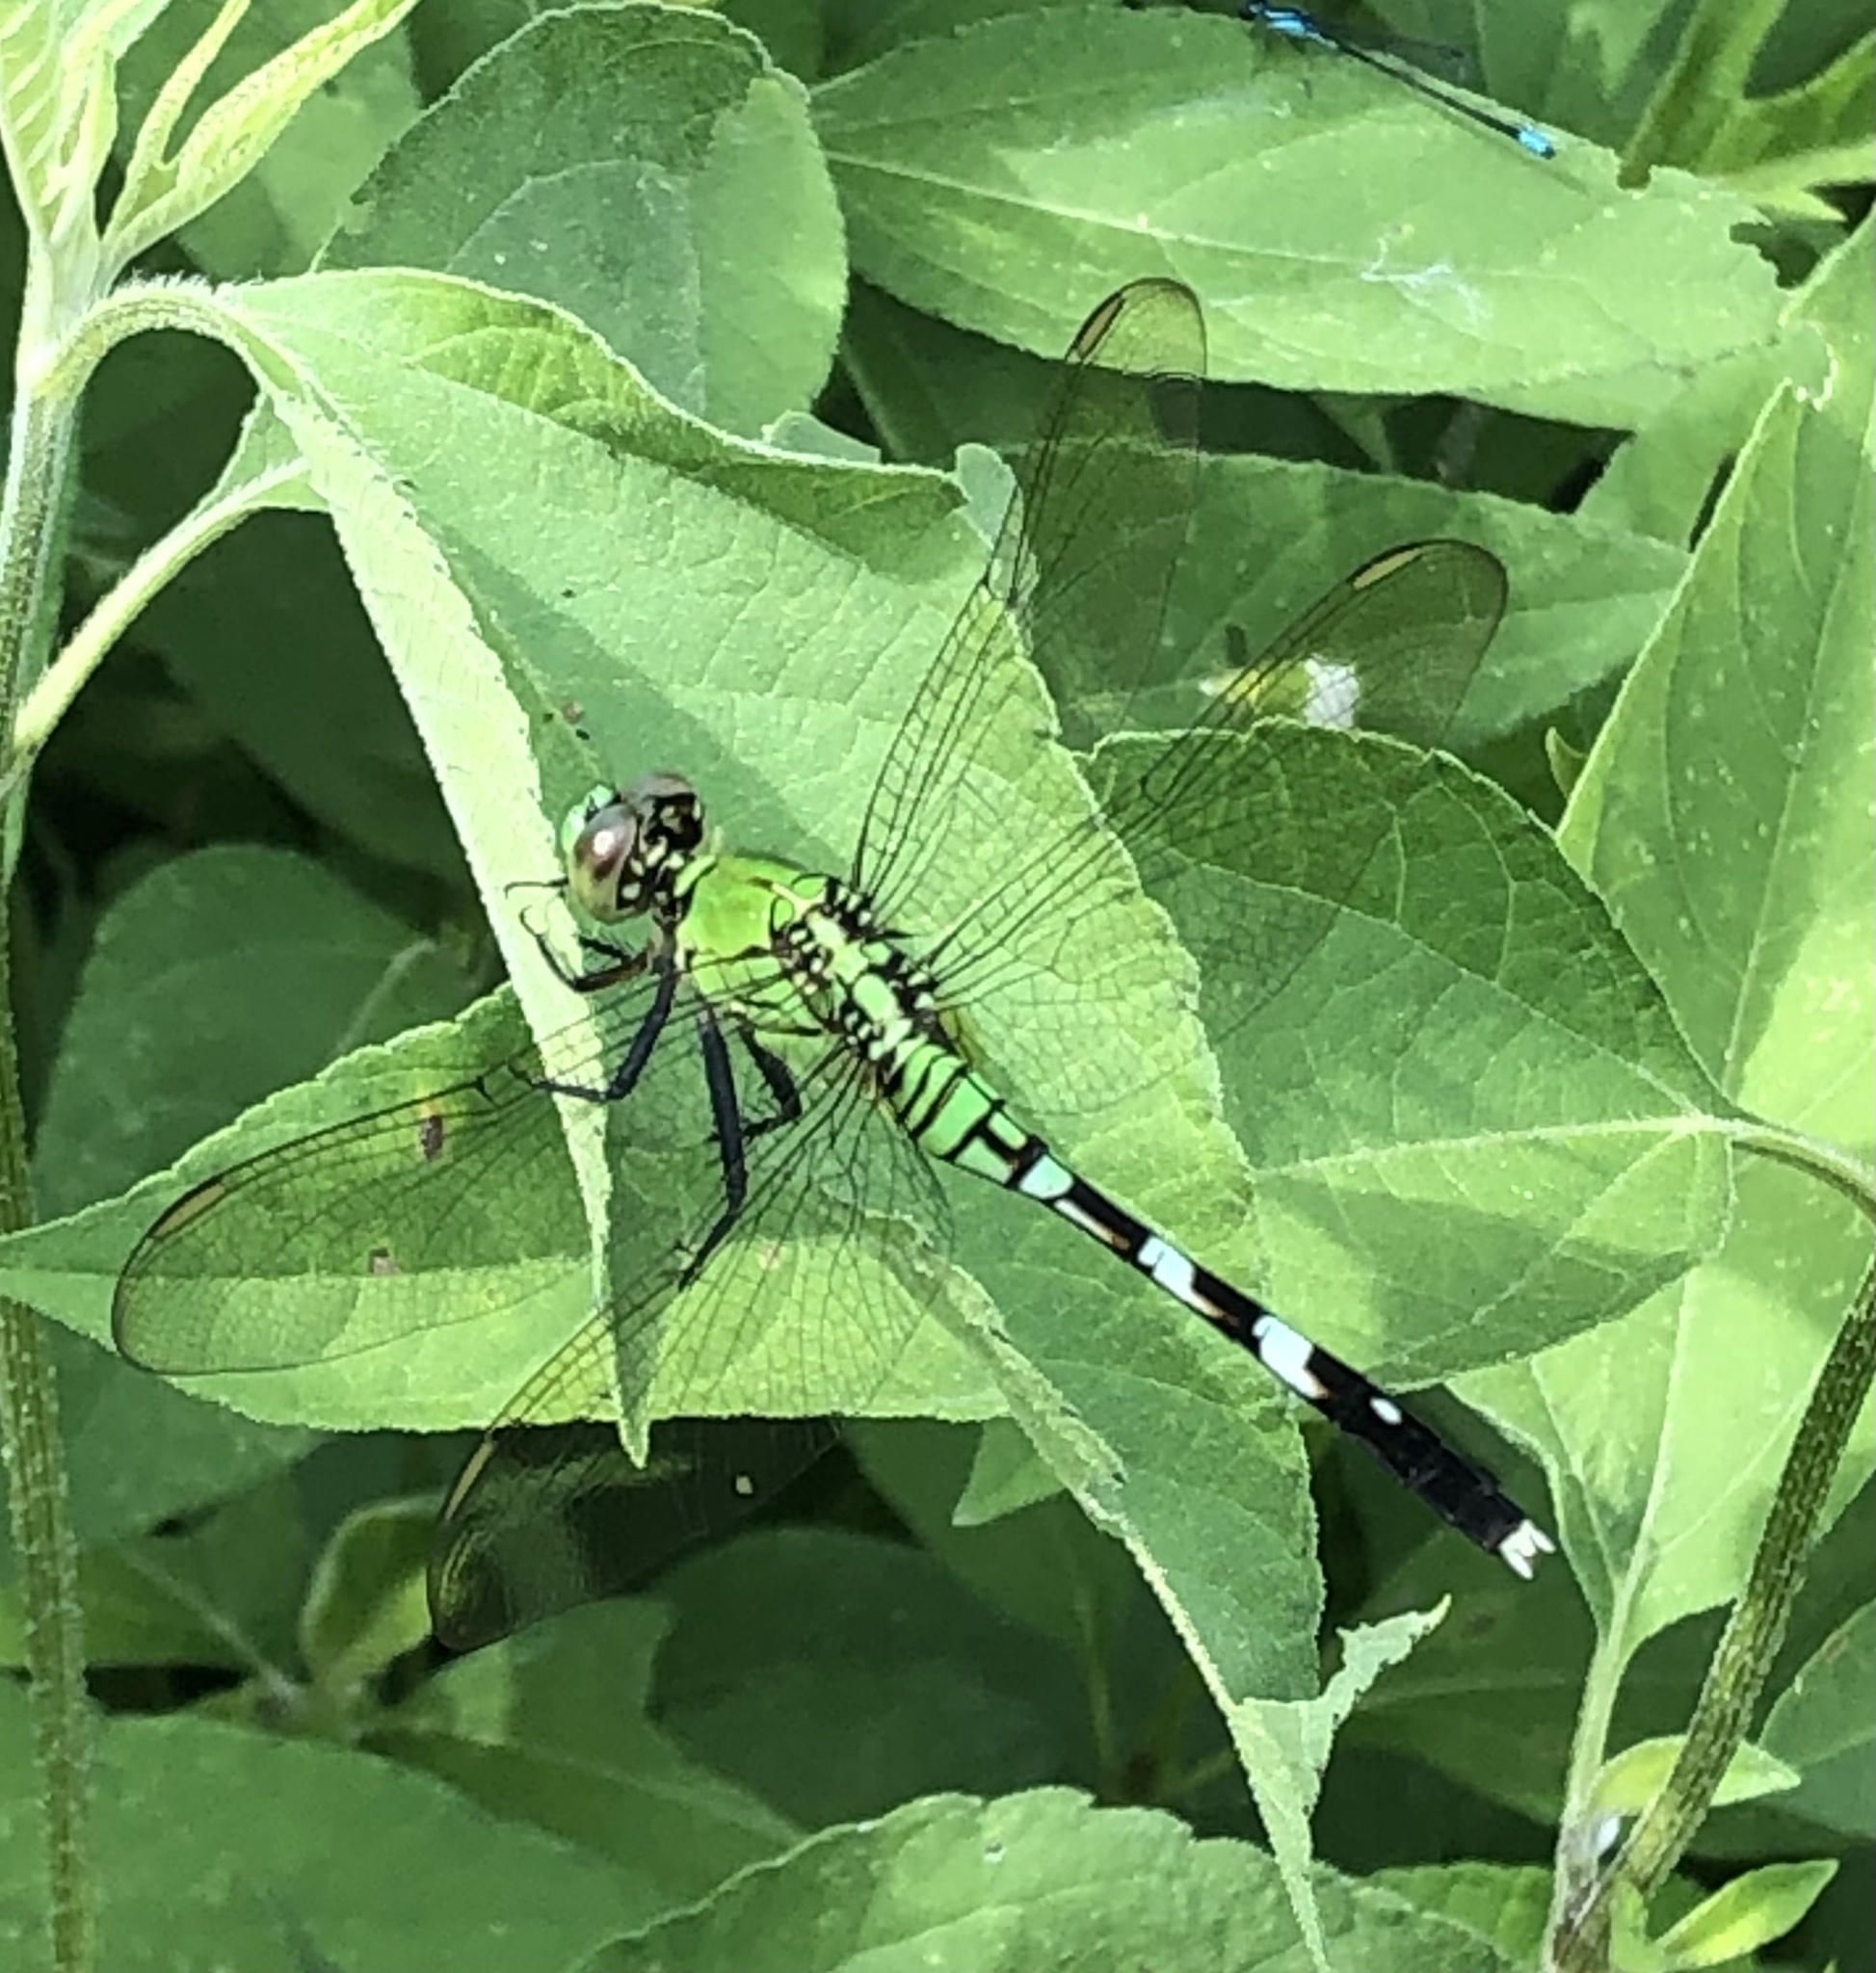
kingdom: Animalia
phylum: Arthropoda
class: Insecta
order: Odonata
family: Libellulidae
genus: Erythemis
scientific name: Erythemis simplicicollis
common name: Eastern pondhawk
